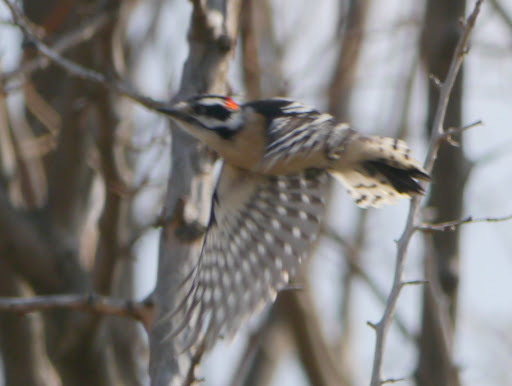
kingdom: Animalia
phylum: Chordata
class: Aves
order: Piciformes
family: Picidae
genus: Dryobates
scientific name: Dryobates pubescens
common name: Downy woodpecker
